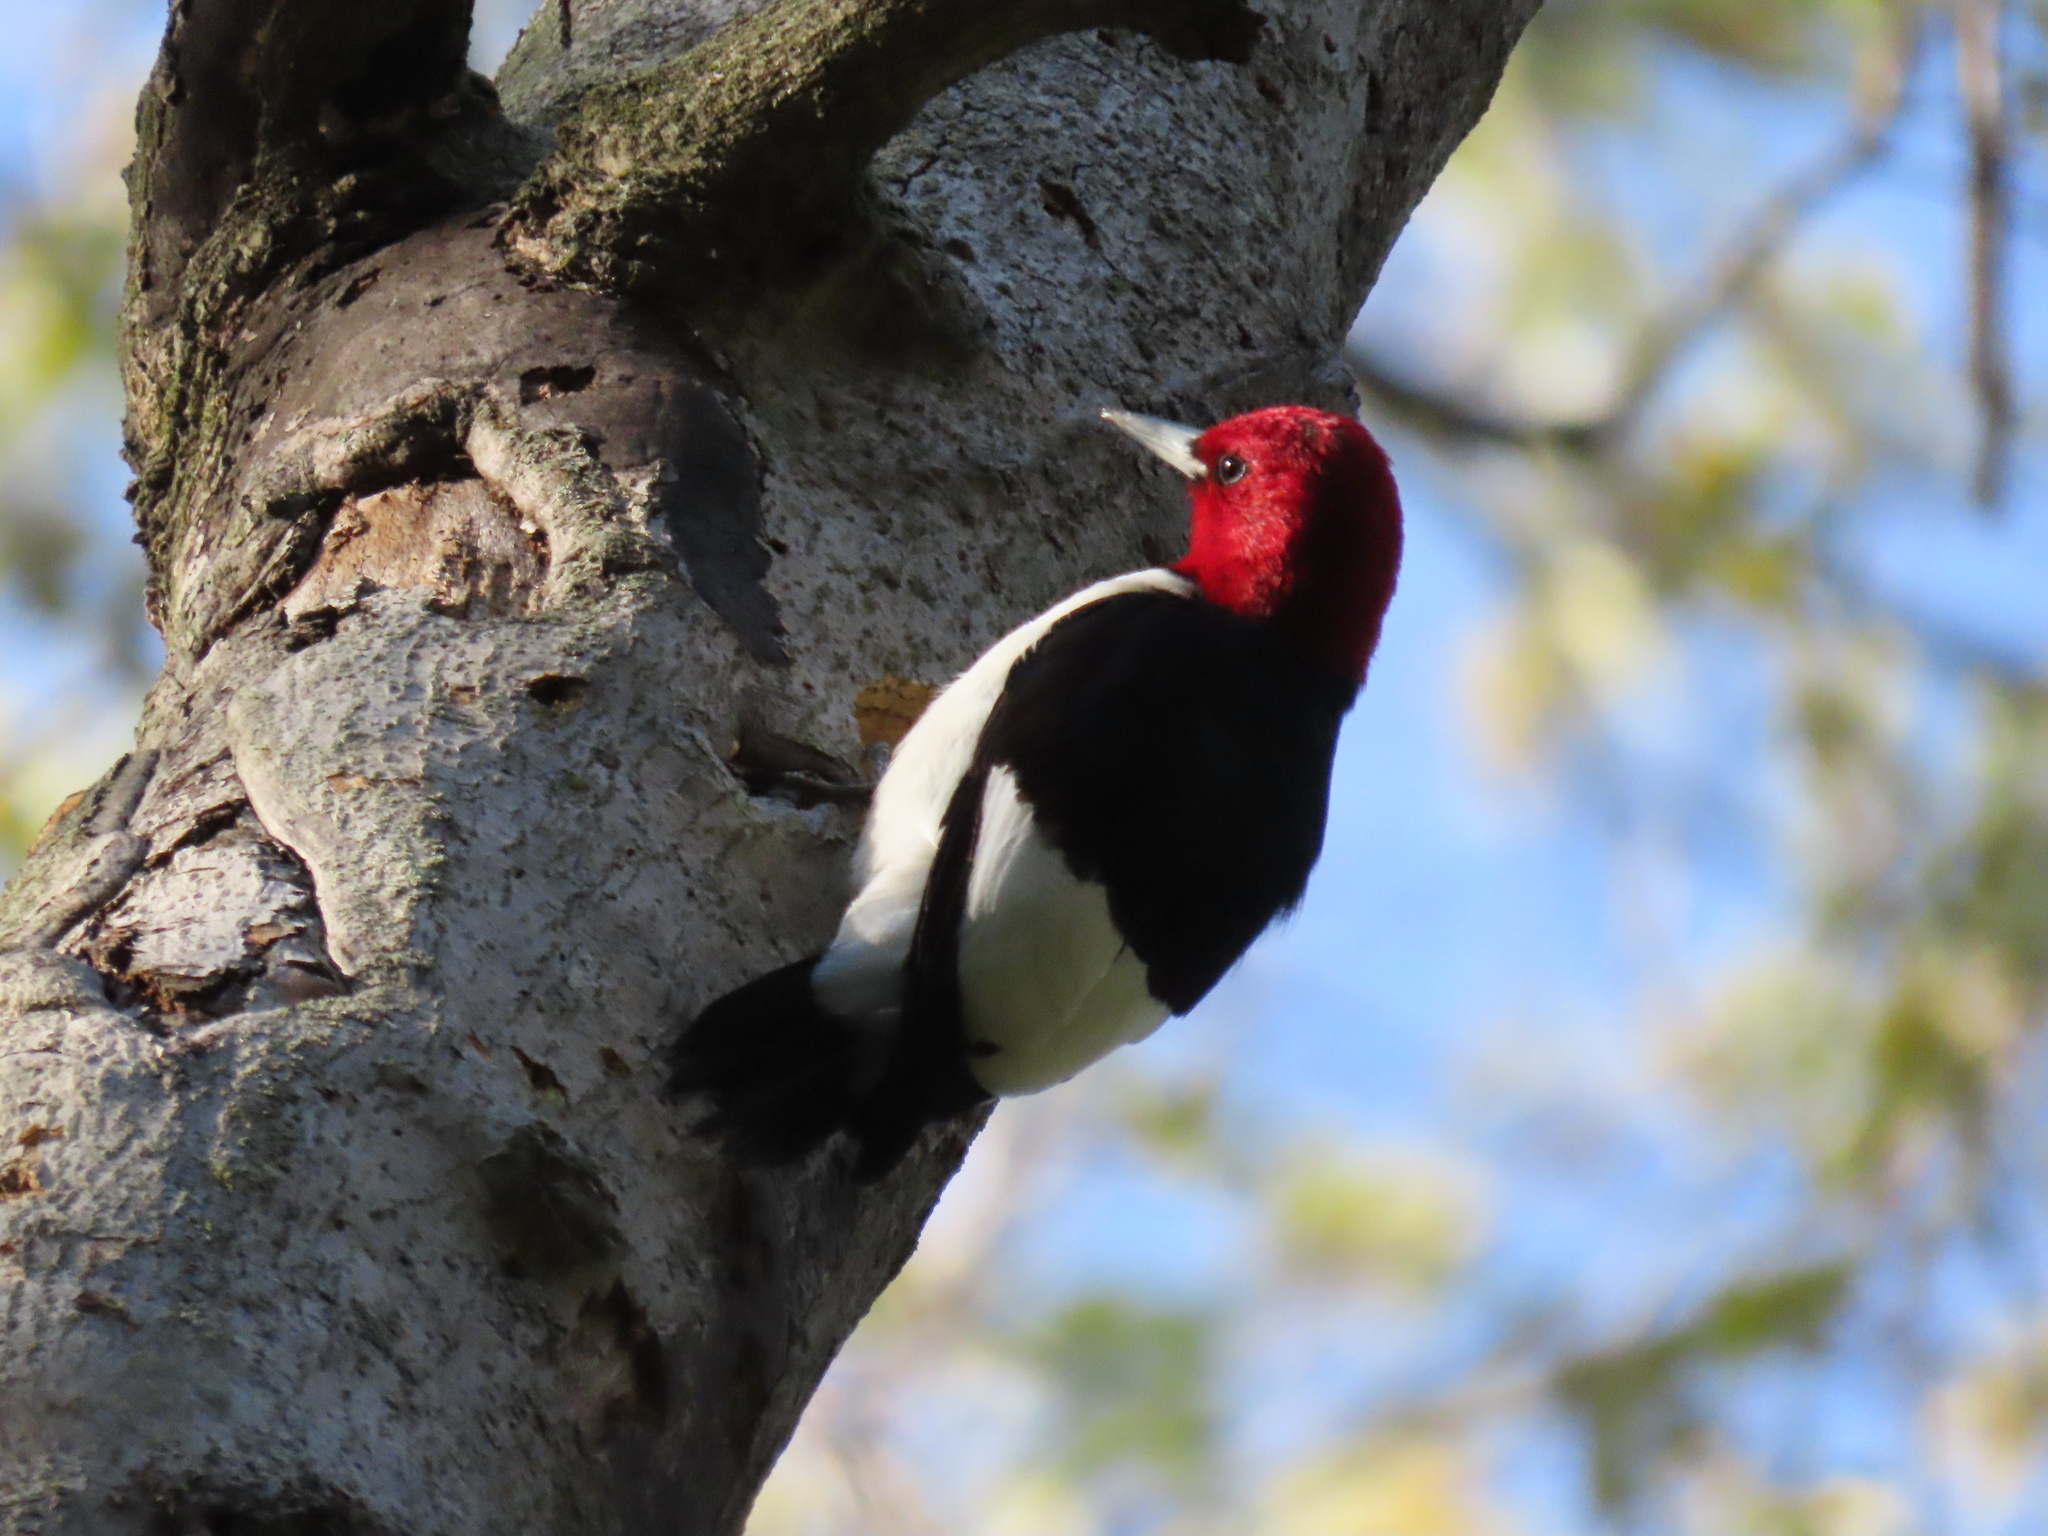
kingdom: Animalia
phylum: Chordata
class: Aves
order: Piciformes
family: Picidae
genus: Melanerpes
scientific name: Melanerpes erythrocephalus
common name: Red-headed woodpecker
